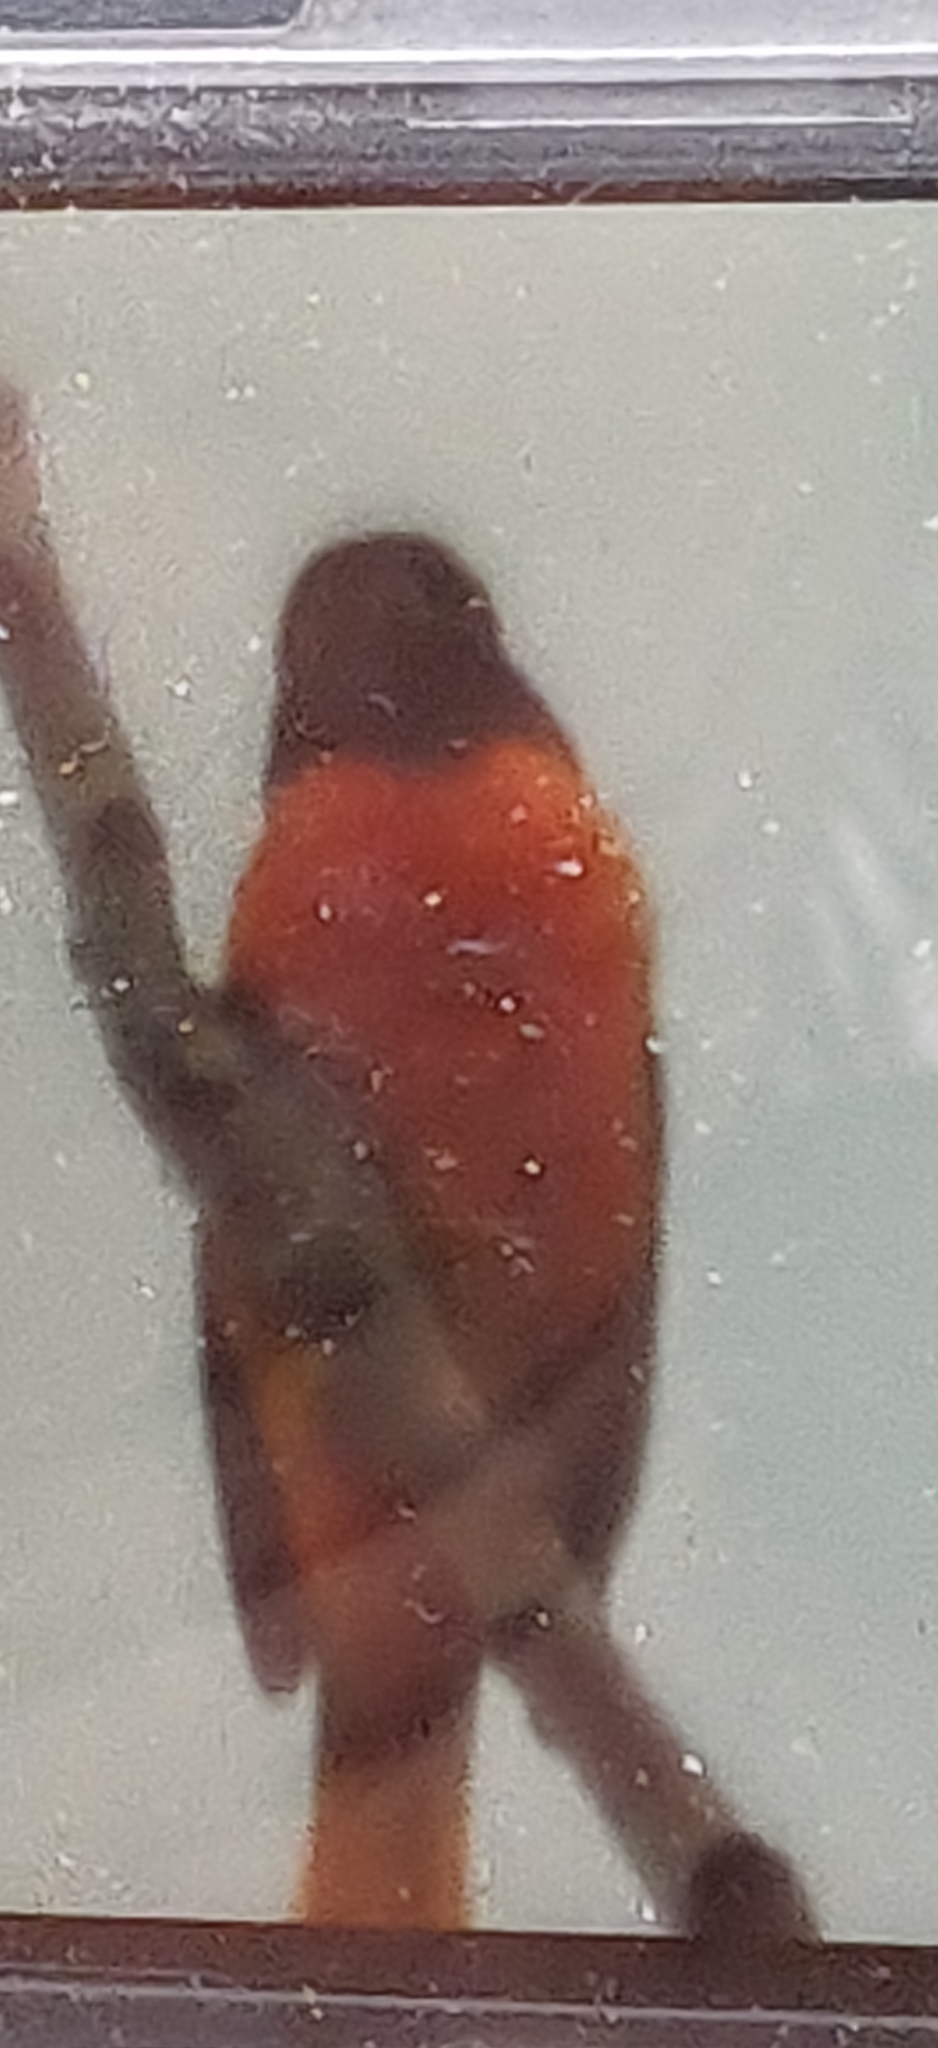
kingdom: Animalia
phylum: Chordata
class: Aves
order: Passeriformes
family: Icteridae
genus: Icterus
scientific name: Icterus galbula
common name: Baltimore oriole
